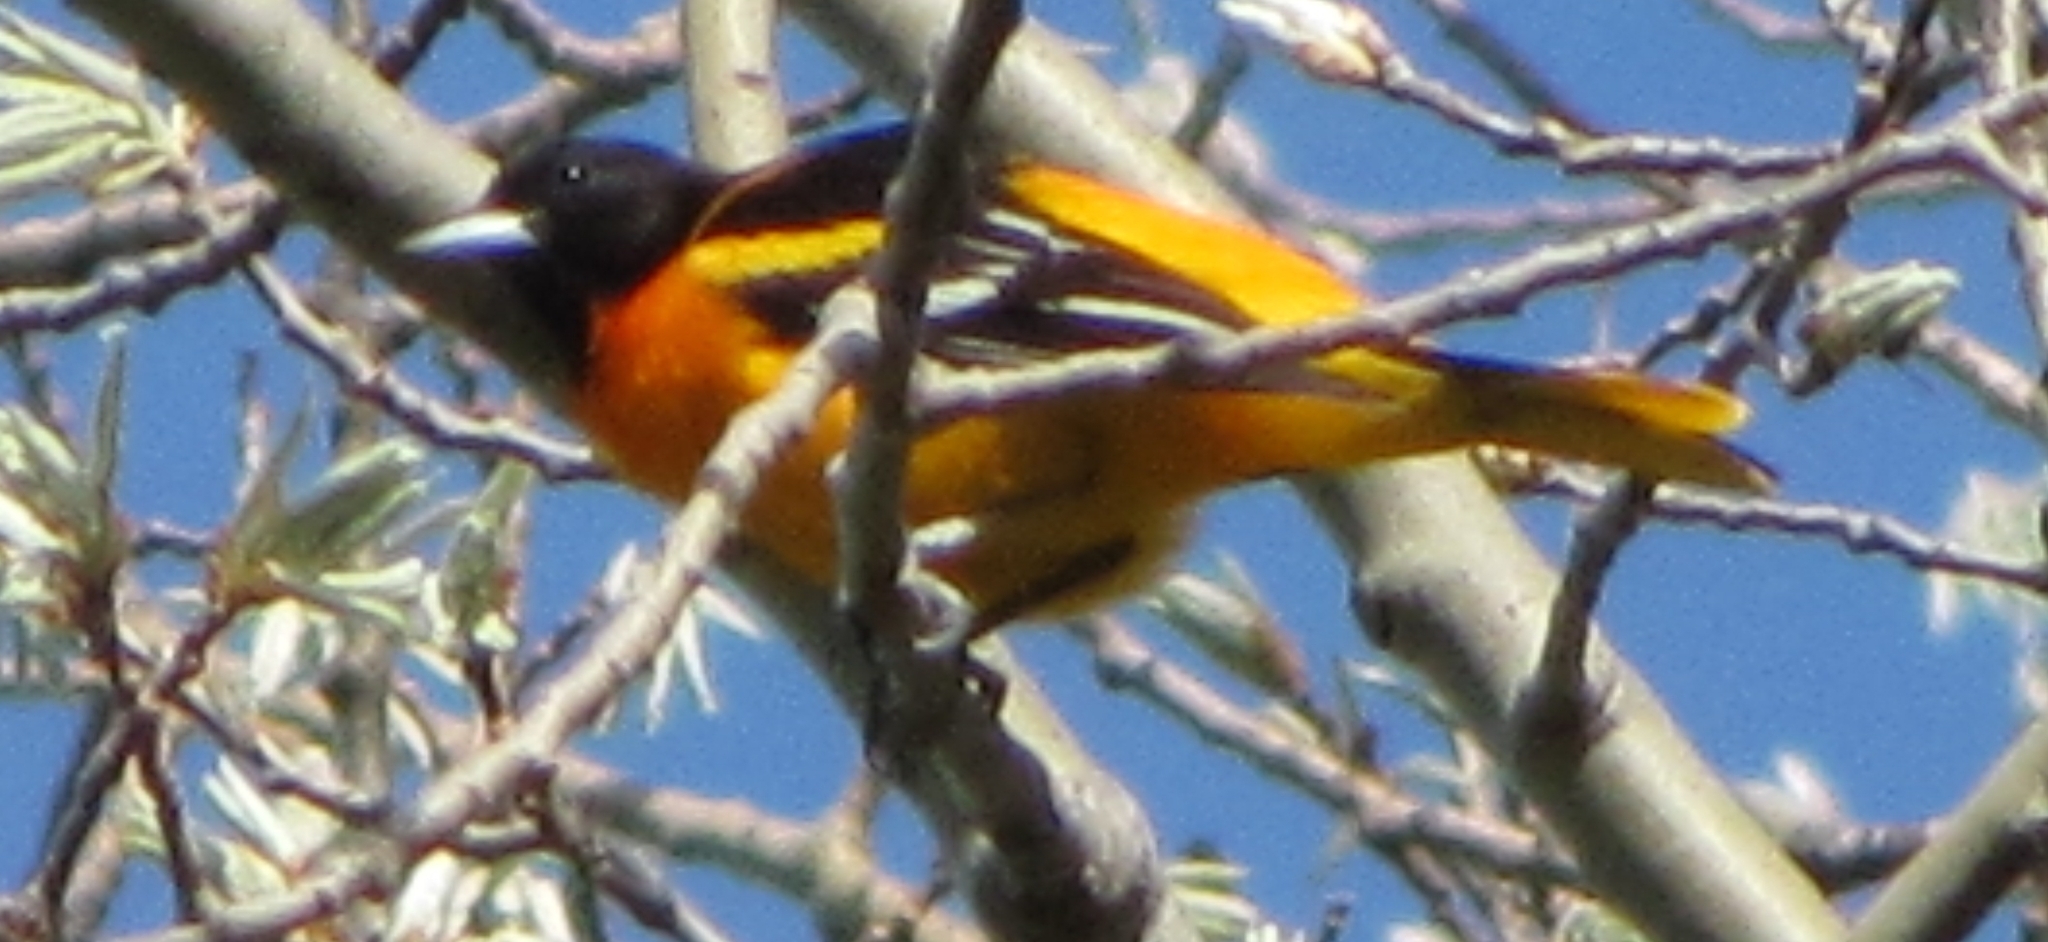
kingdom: Animalia
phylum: Chordata
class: Aves
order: Passeriformes
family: Icteridae
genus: Icterus
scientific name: Icterus galbula
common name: Baltimore oriole
